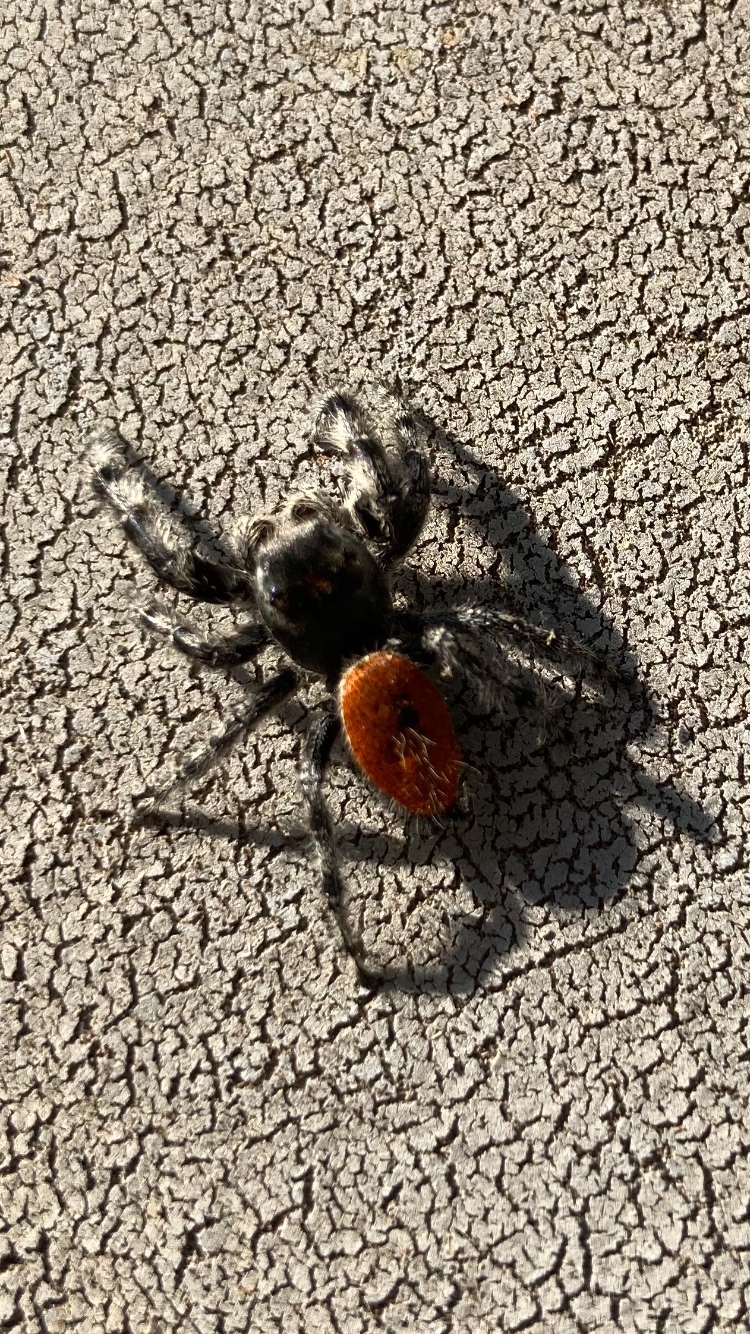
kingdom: Animalia
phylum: Arthropoda
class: Arachnida
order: Araneae
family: Salticidae
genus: Phidippus
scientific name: Phidippus adumbratus
